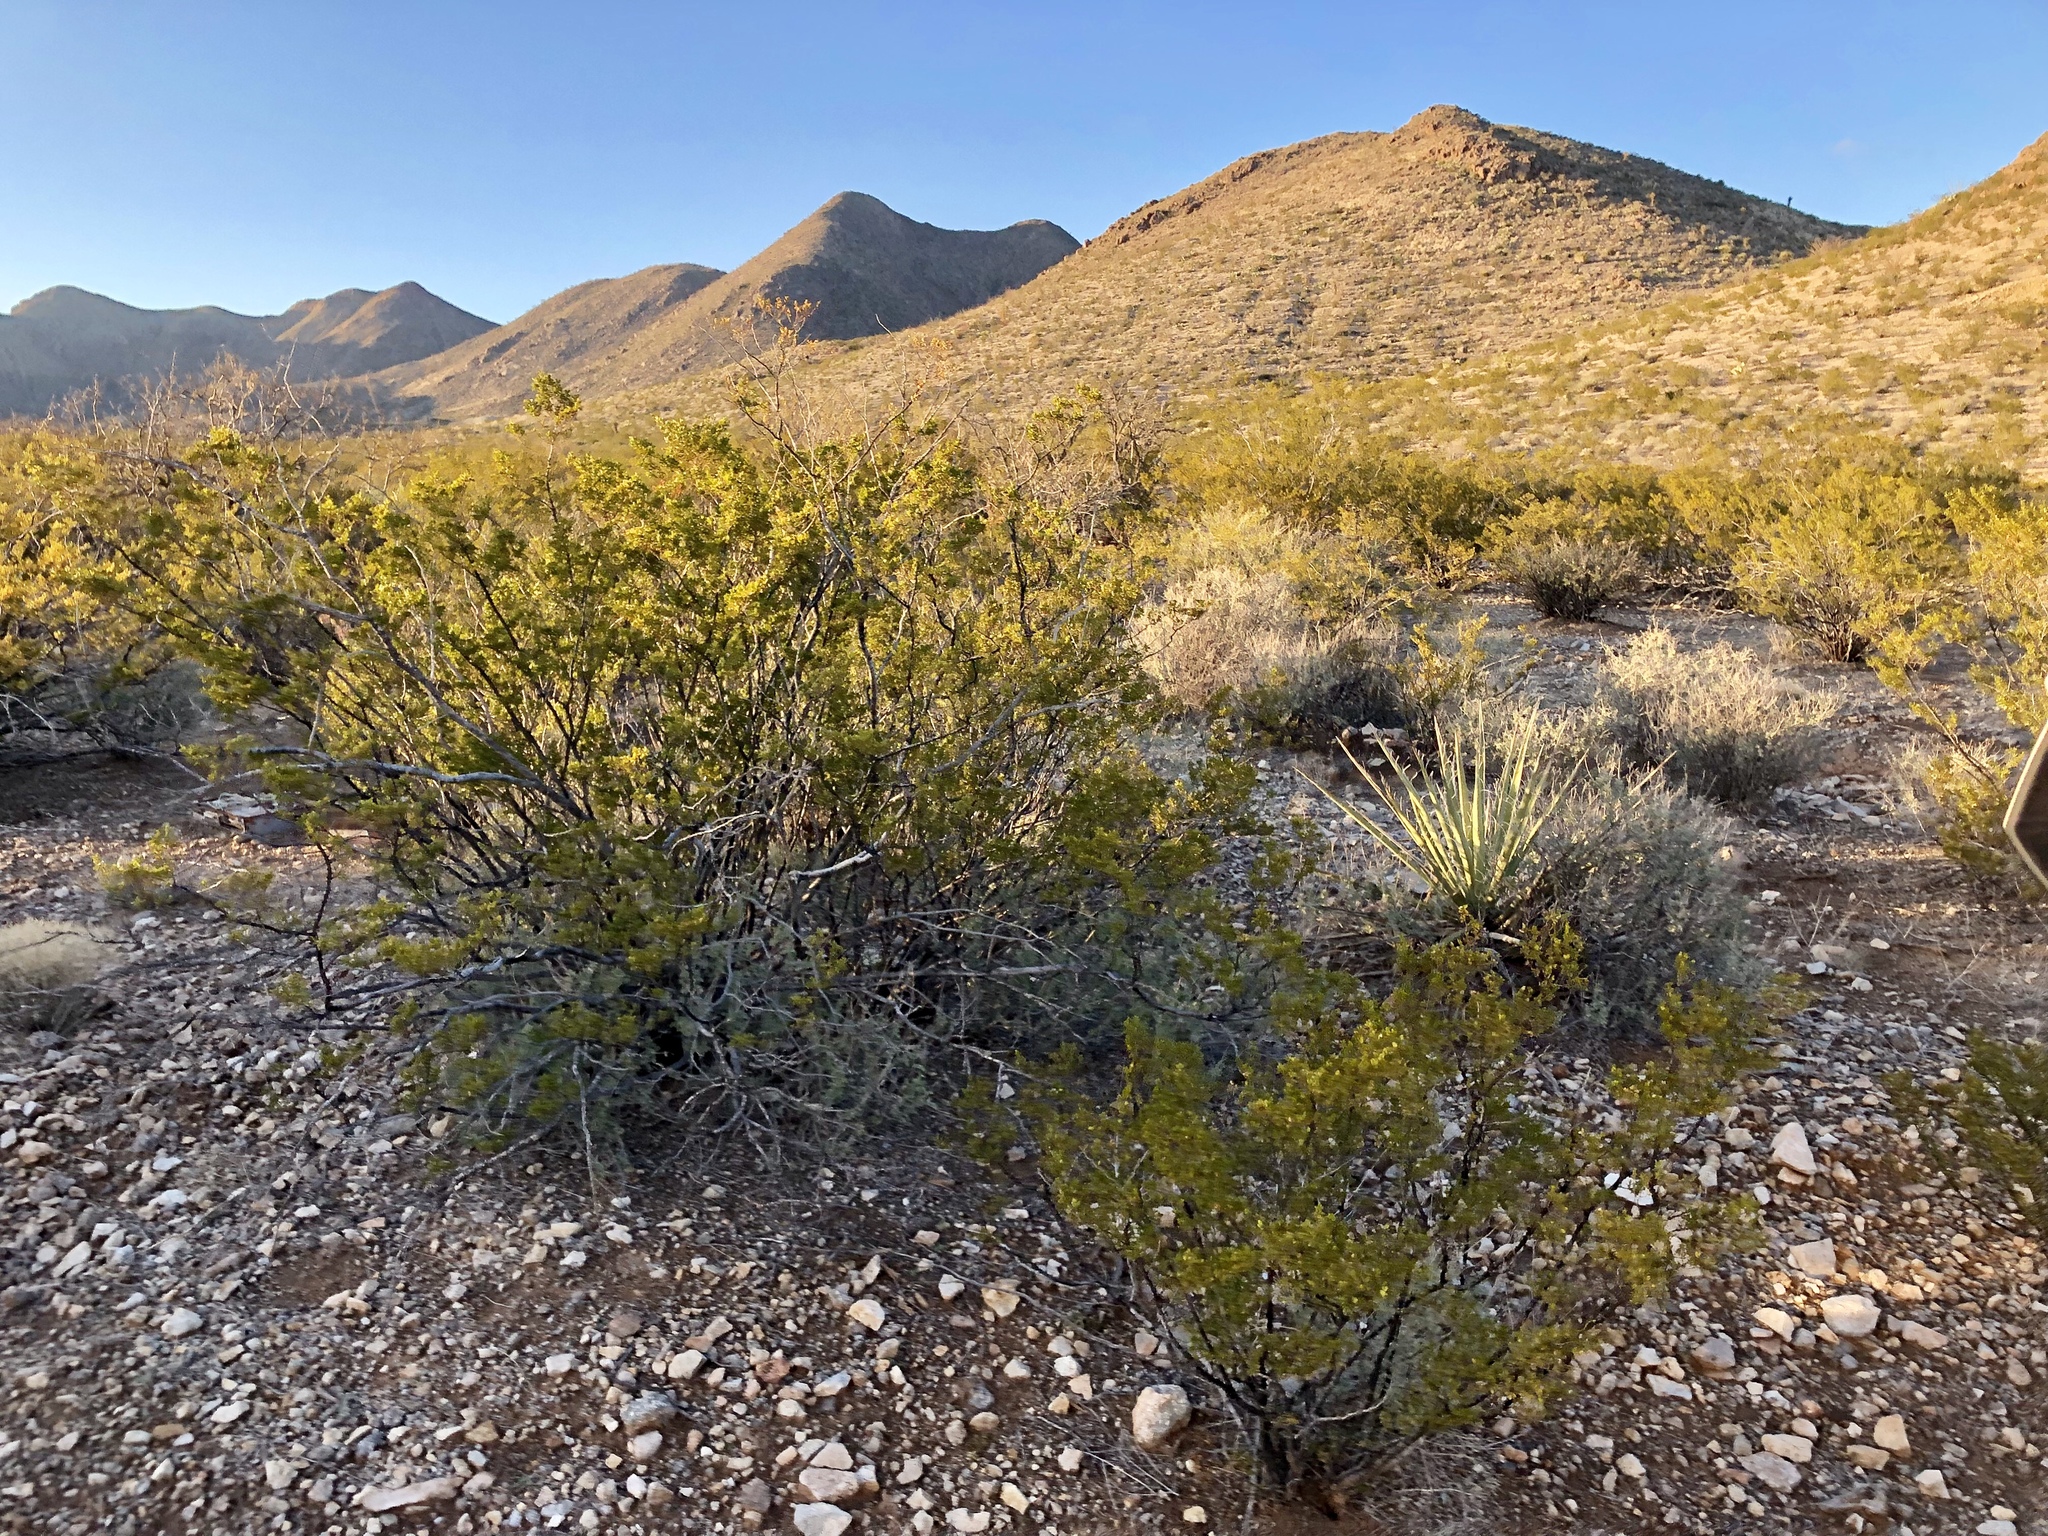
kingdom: Plantae
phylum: Tracheophyta
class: Magnoliopsida
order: Zygophyllales
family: Zygophyllaceae
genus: Larrea
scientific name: Larrea tridentata
